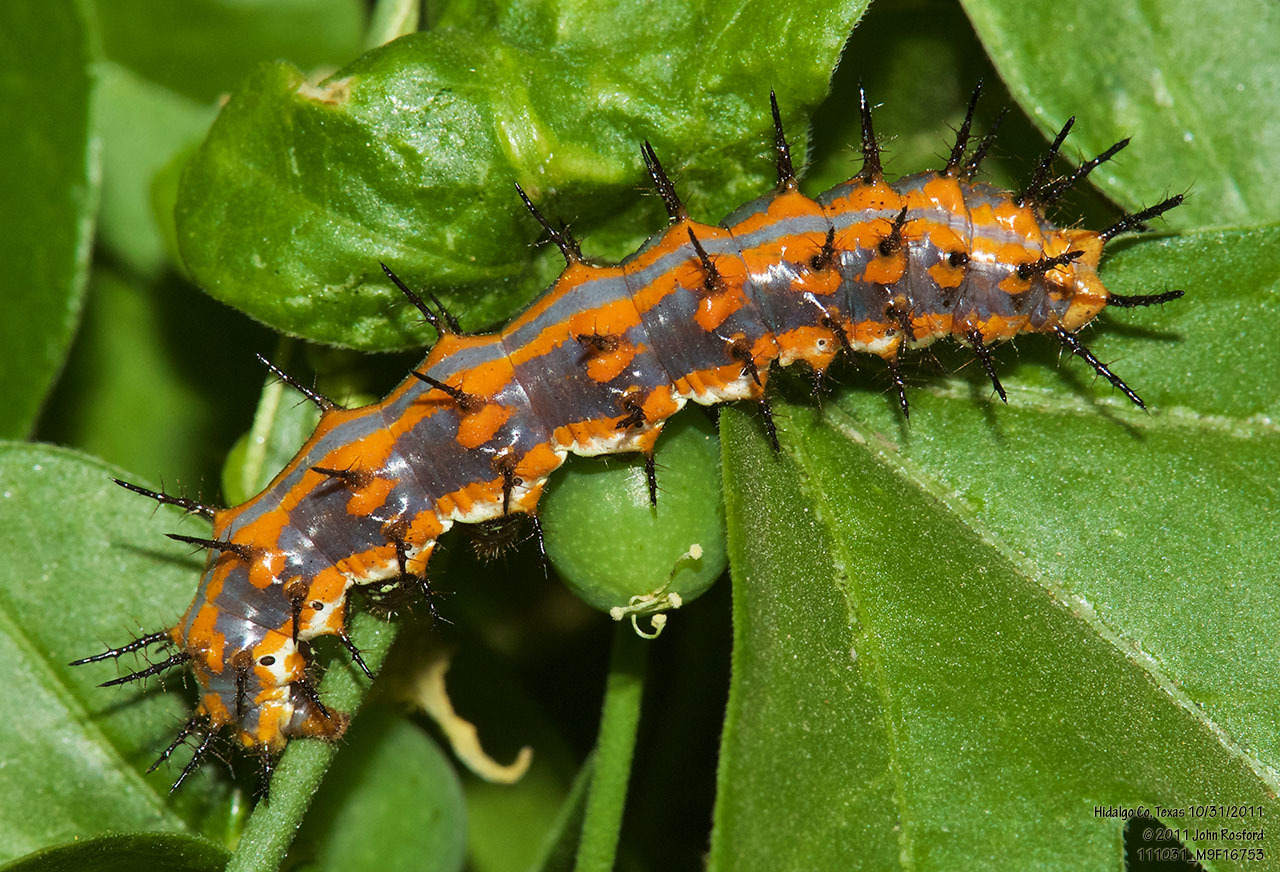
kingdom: Animalia
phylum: Arthropoda
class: Insecta
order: Lepidoptera
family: Nymphalidae
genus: Dione
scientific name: Dione vanillae
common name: Gulf fritillary
